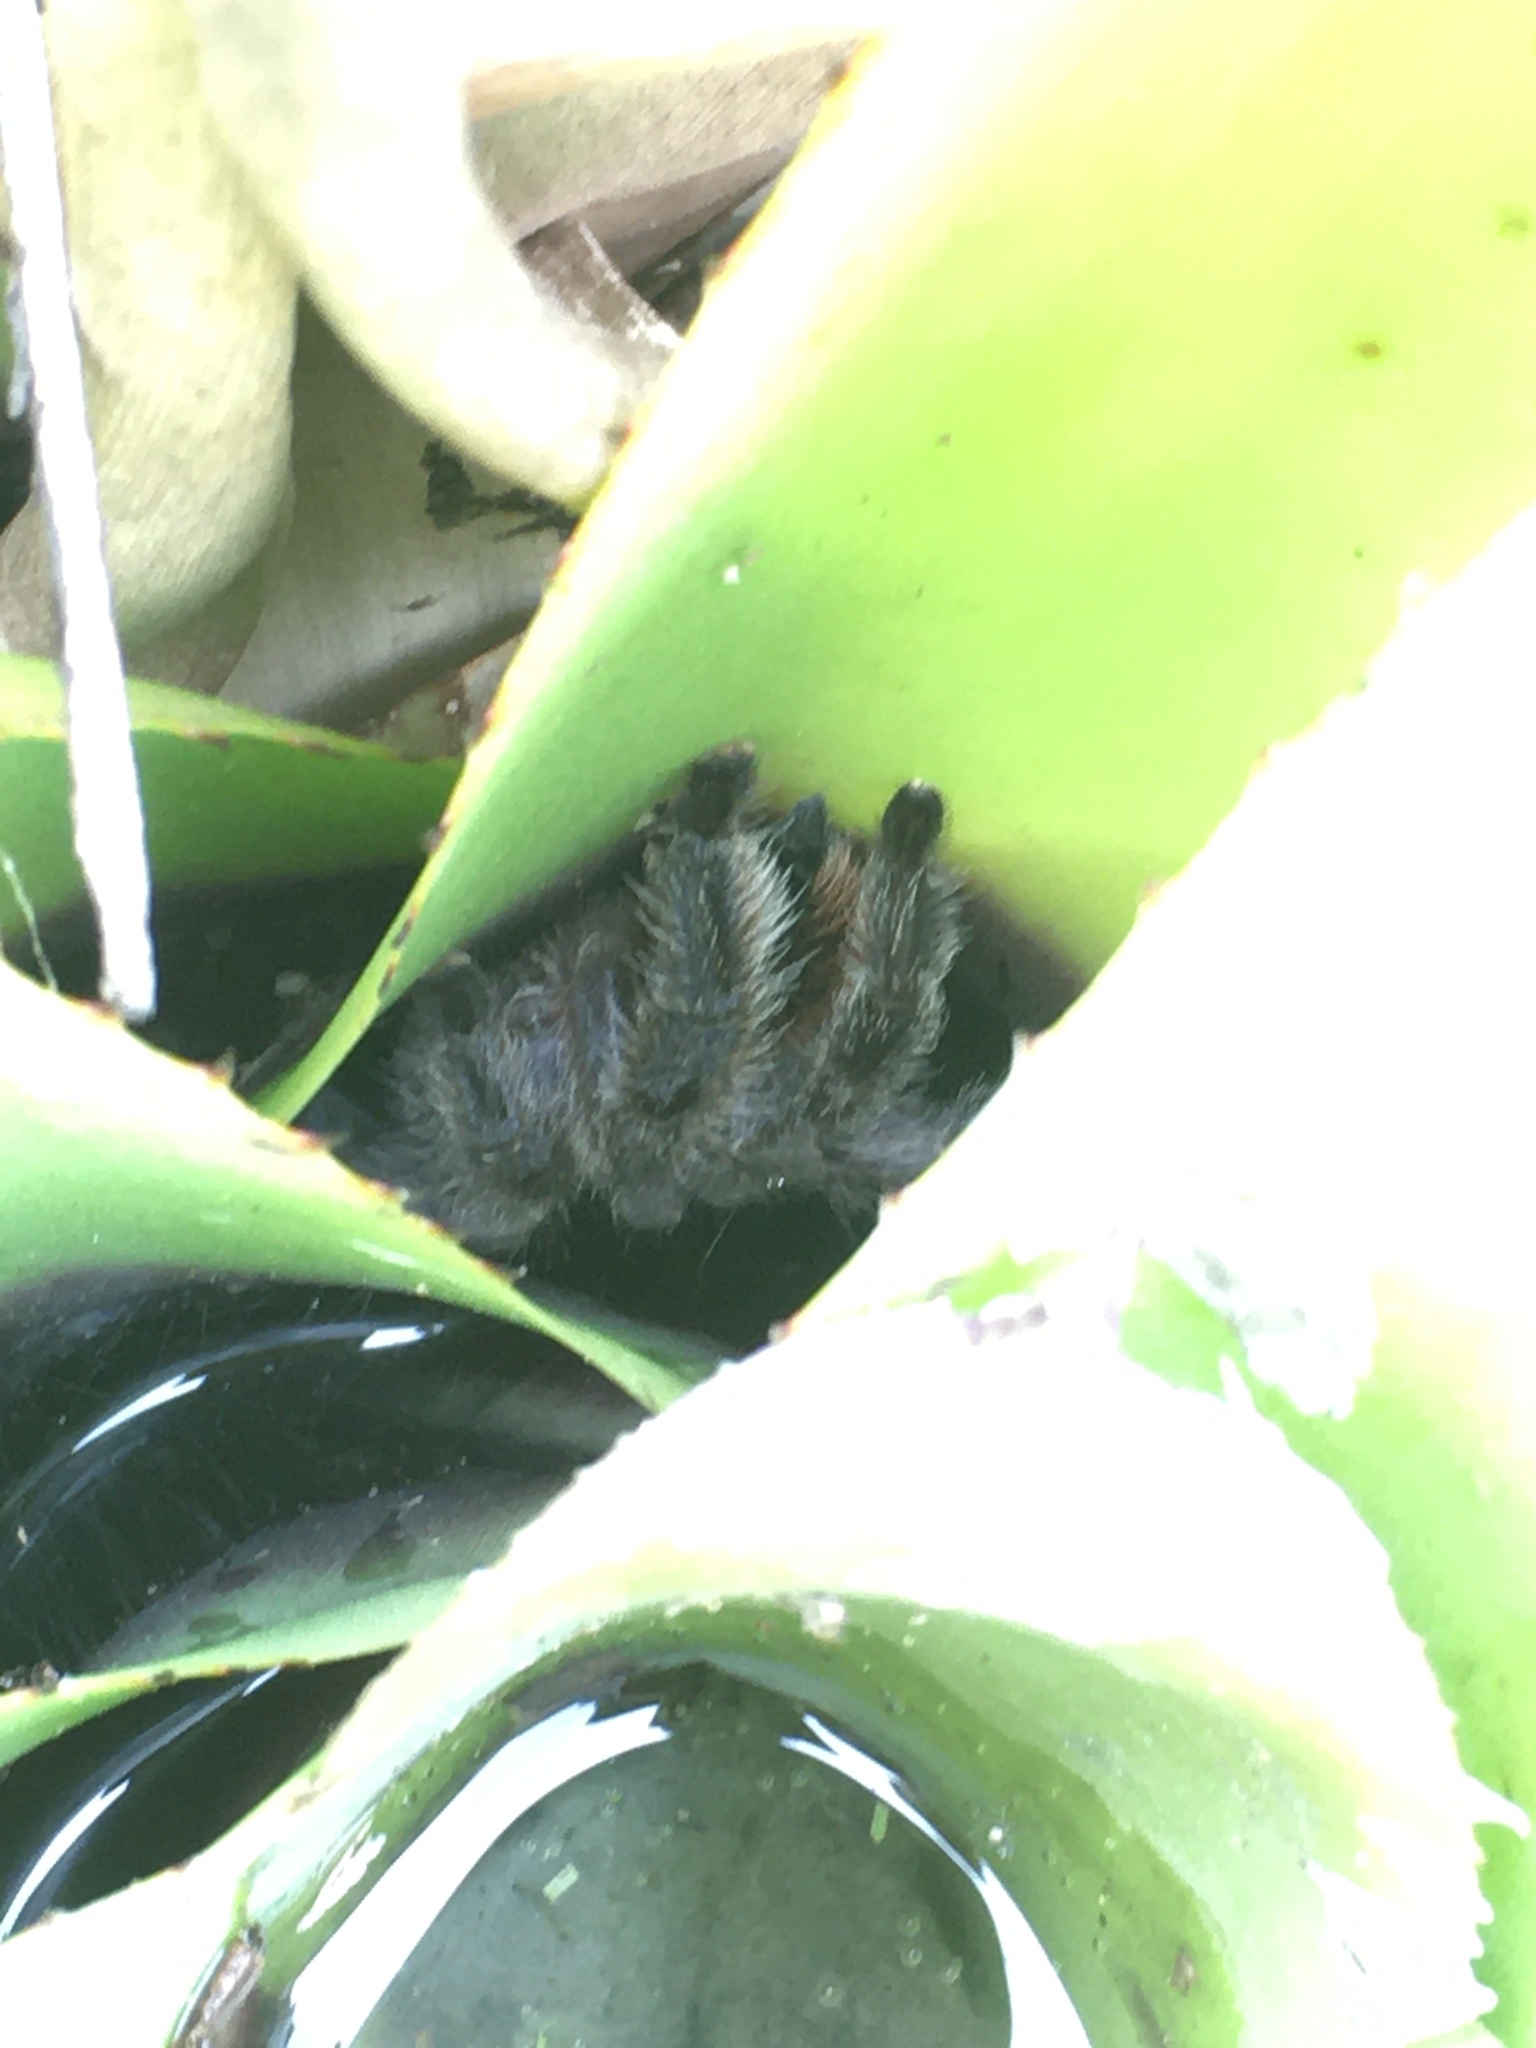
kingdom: Animalia
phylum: Arthropoda
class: Arachnida
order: Araneae
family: Theraphosidae
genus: Pachistopelma
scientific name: Pachistopelma rufonigrum
